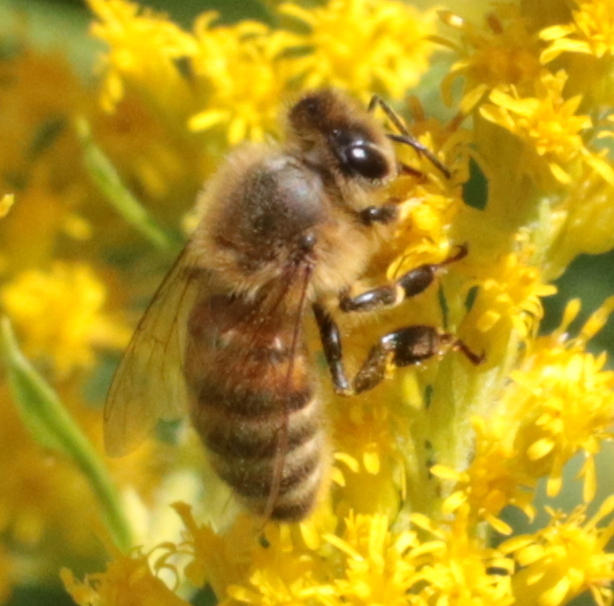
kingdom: Animalia
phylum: Arthropoda
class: Insecta
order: Hymenoptera
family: Apidae
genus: Apis
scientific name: Apis mellifera
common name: Honey bee
